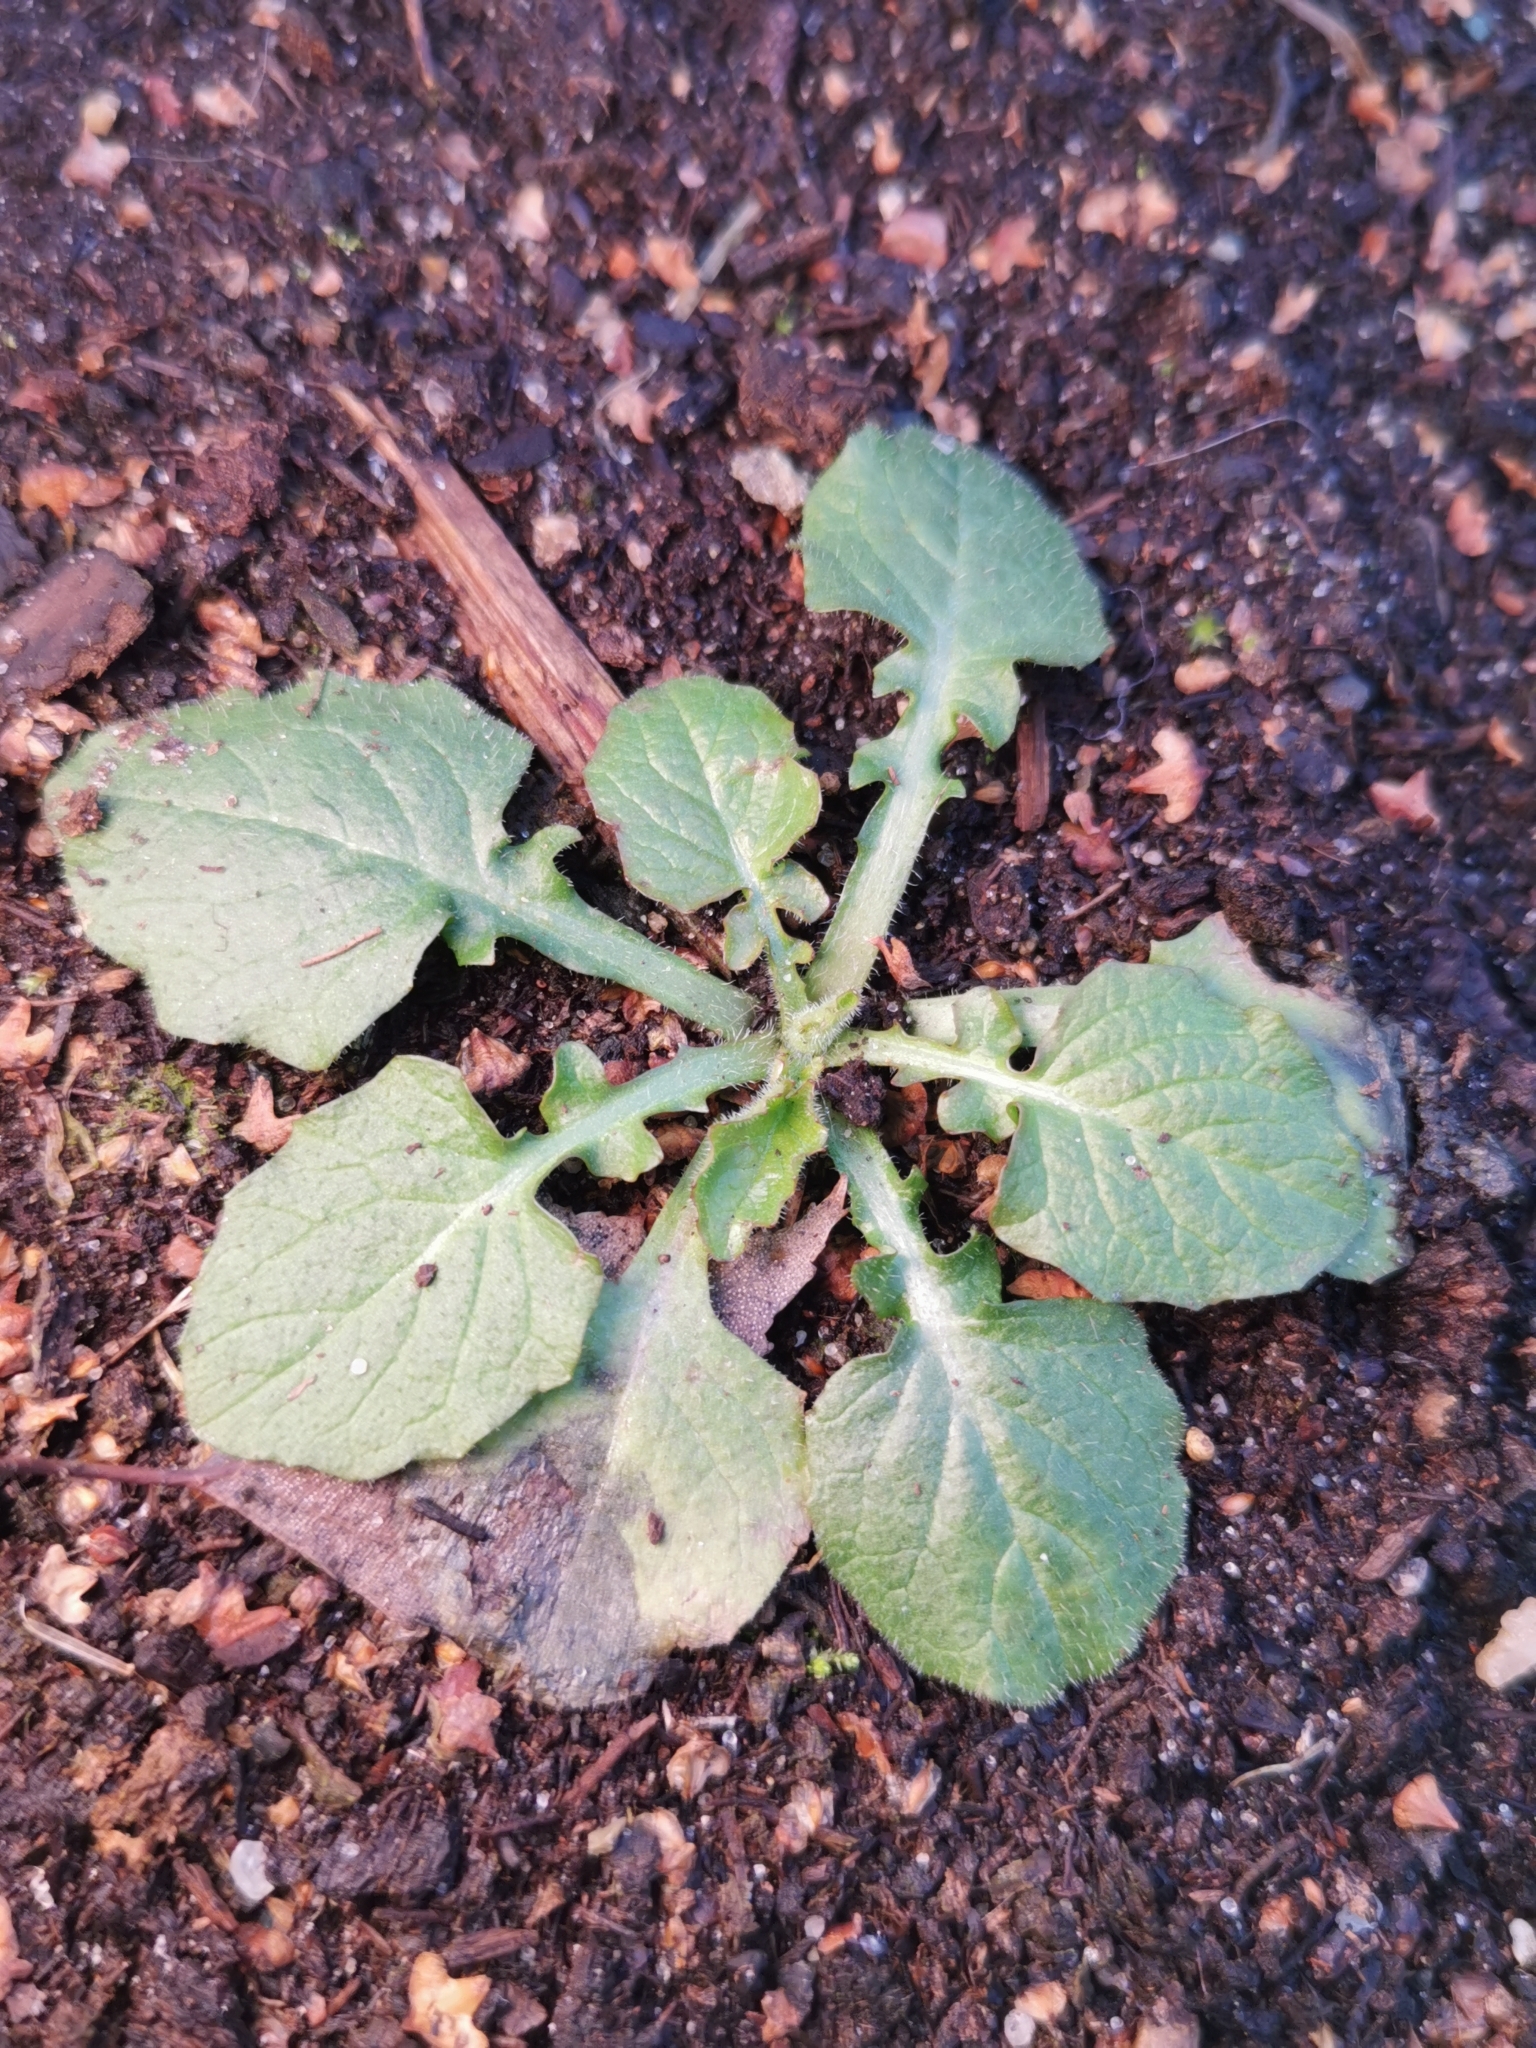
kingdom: Plantae
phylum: Tracheophyta
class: Magnoliopsida
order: Asterales
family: Asteraceae
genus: Lapsana
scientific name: Lapsana communis
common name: Nipplewort
